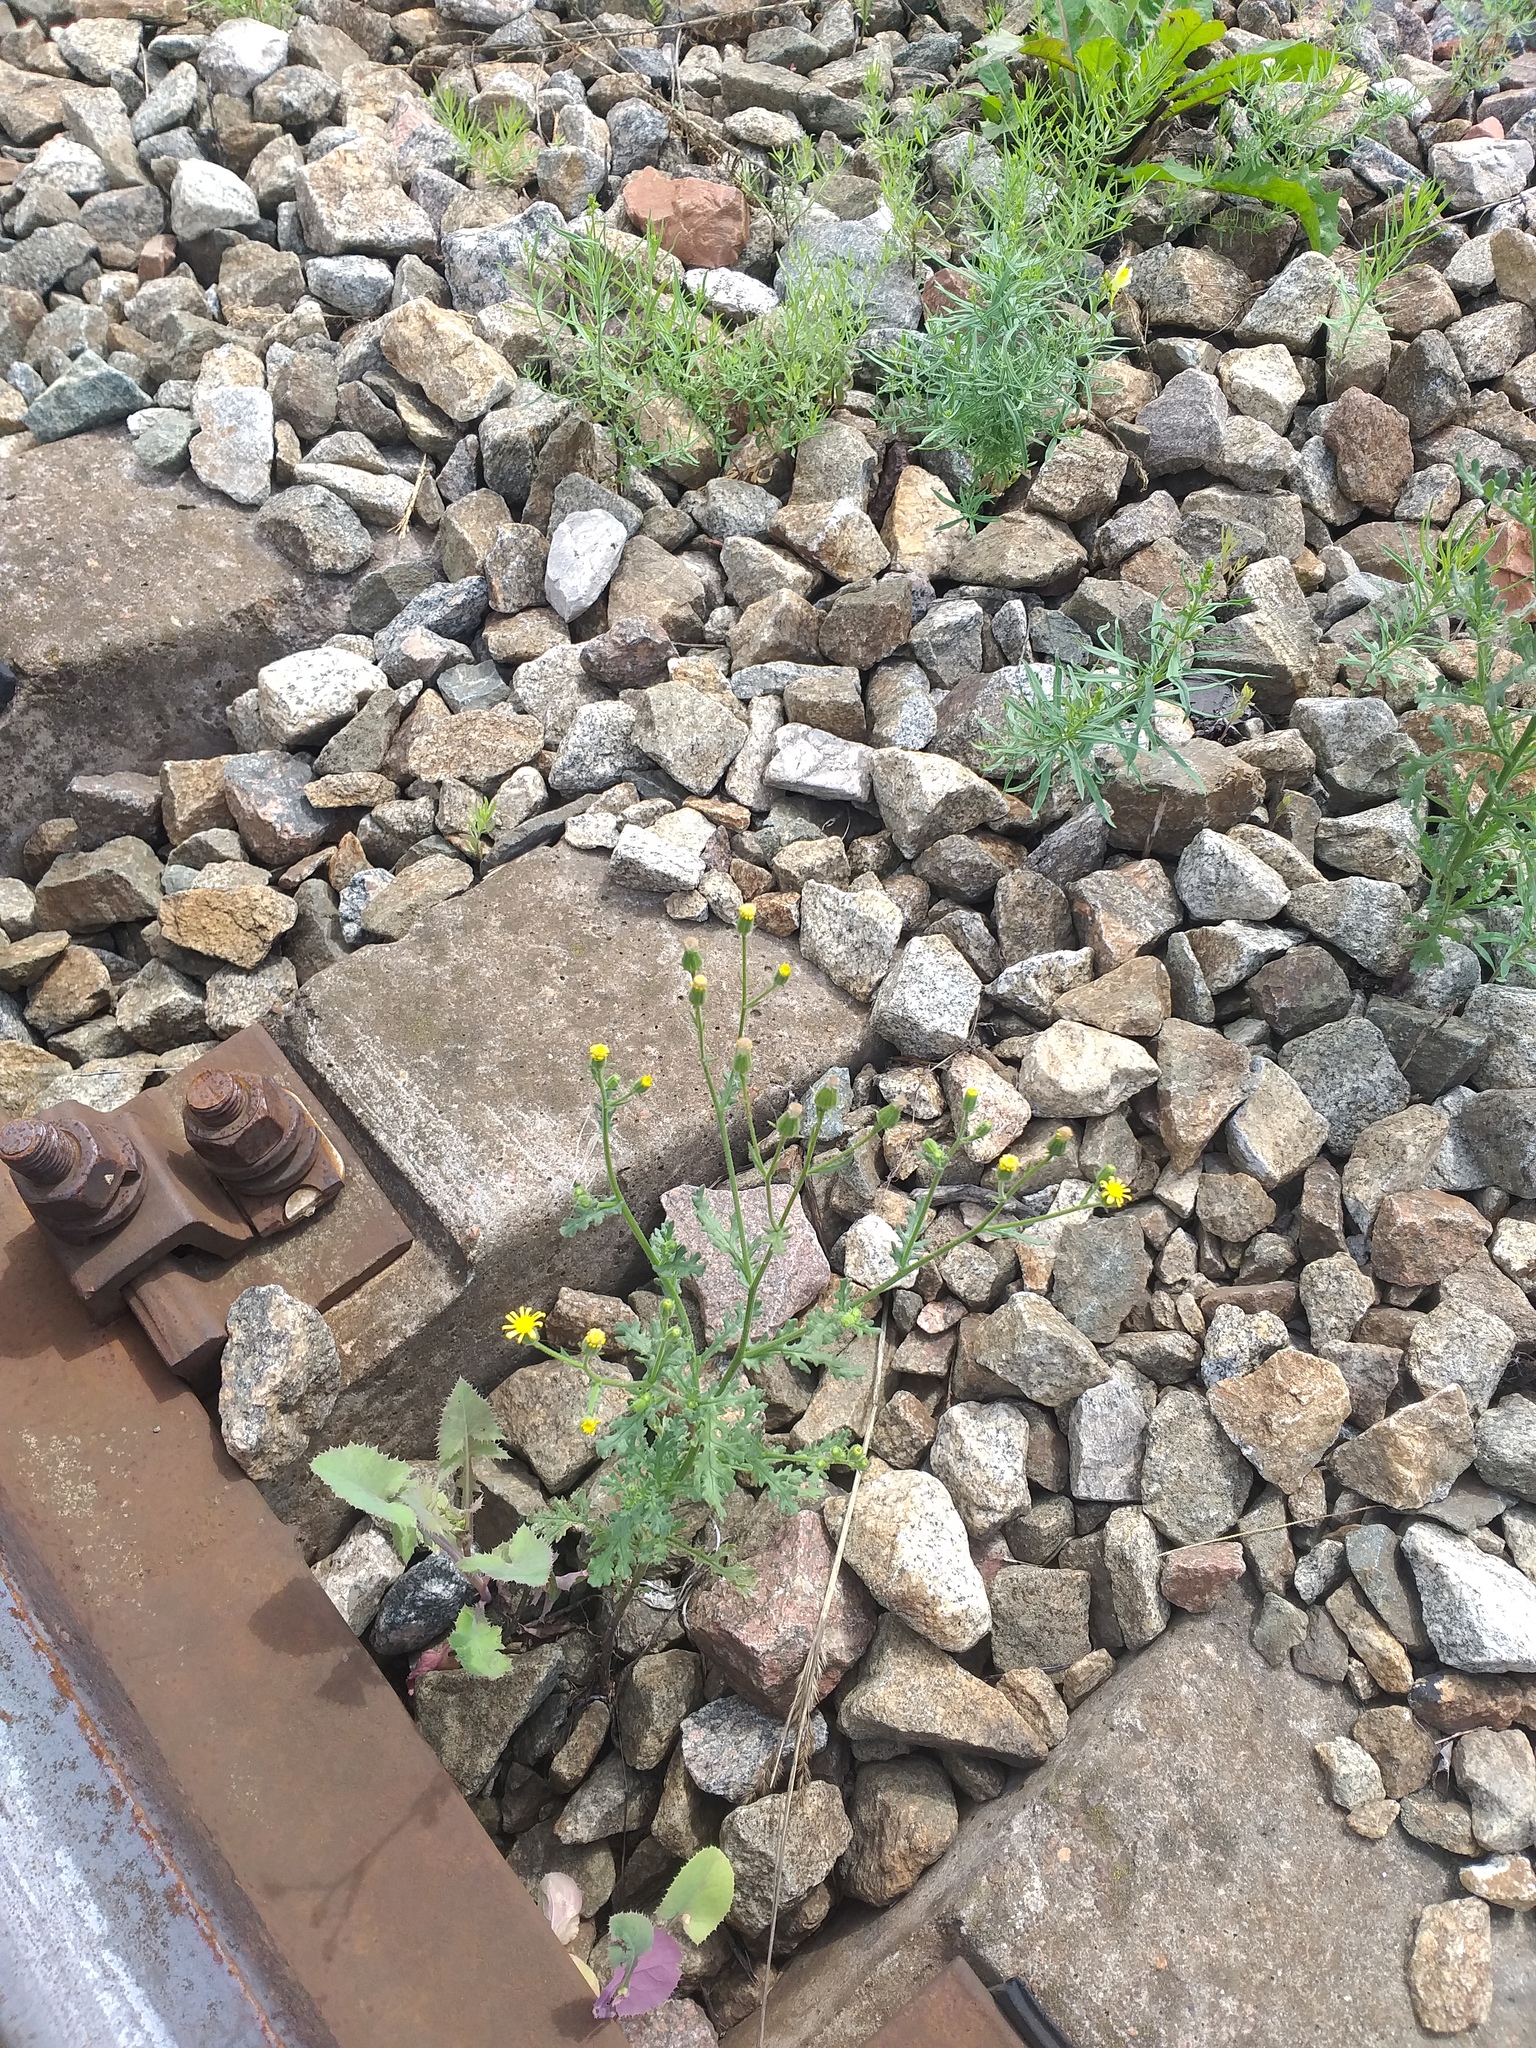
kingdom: Plantae
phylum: Tracheophyta
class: Magnoliopsida
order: Asterales
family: Asteraceae
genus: Senecio
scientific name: Senecio viscosus
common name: Sticky groundsel
